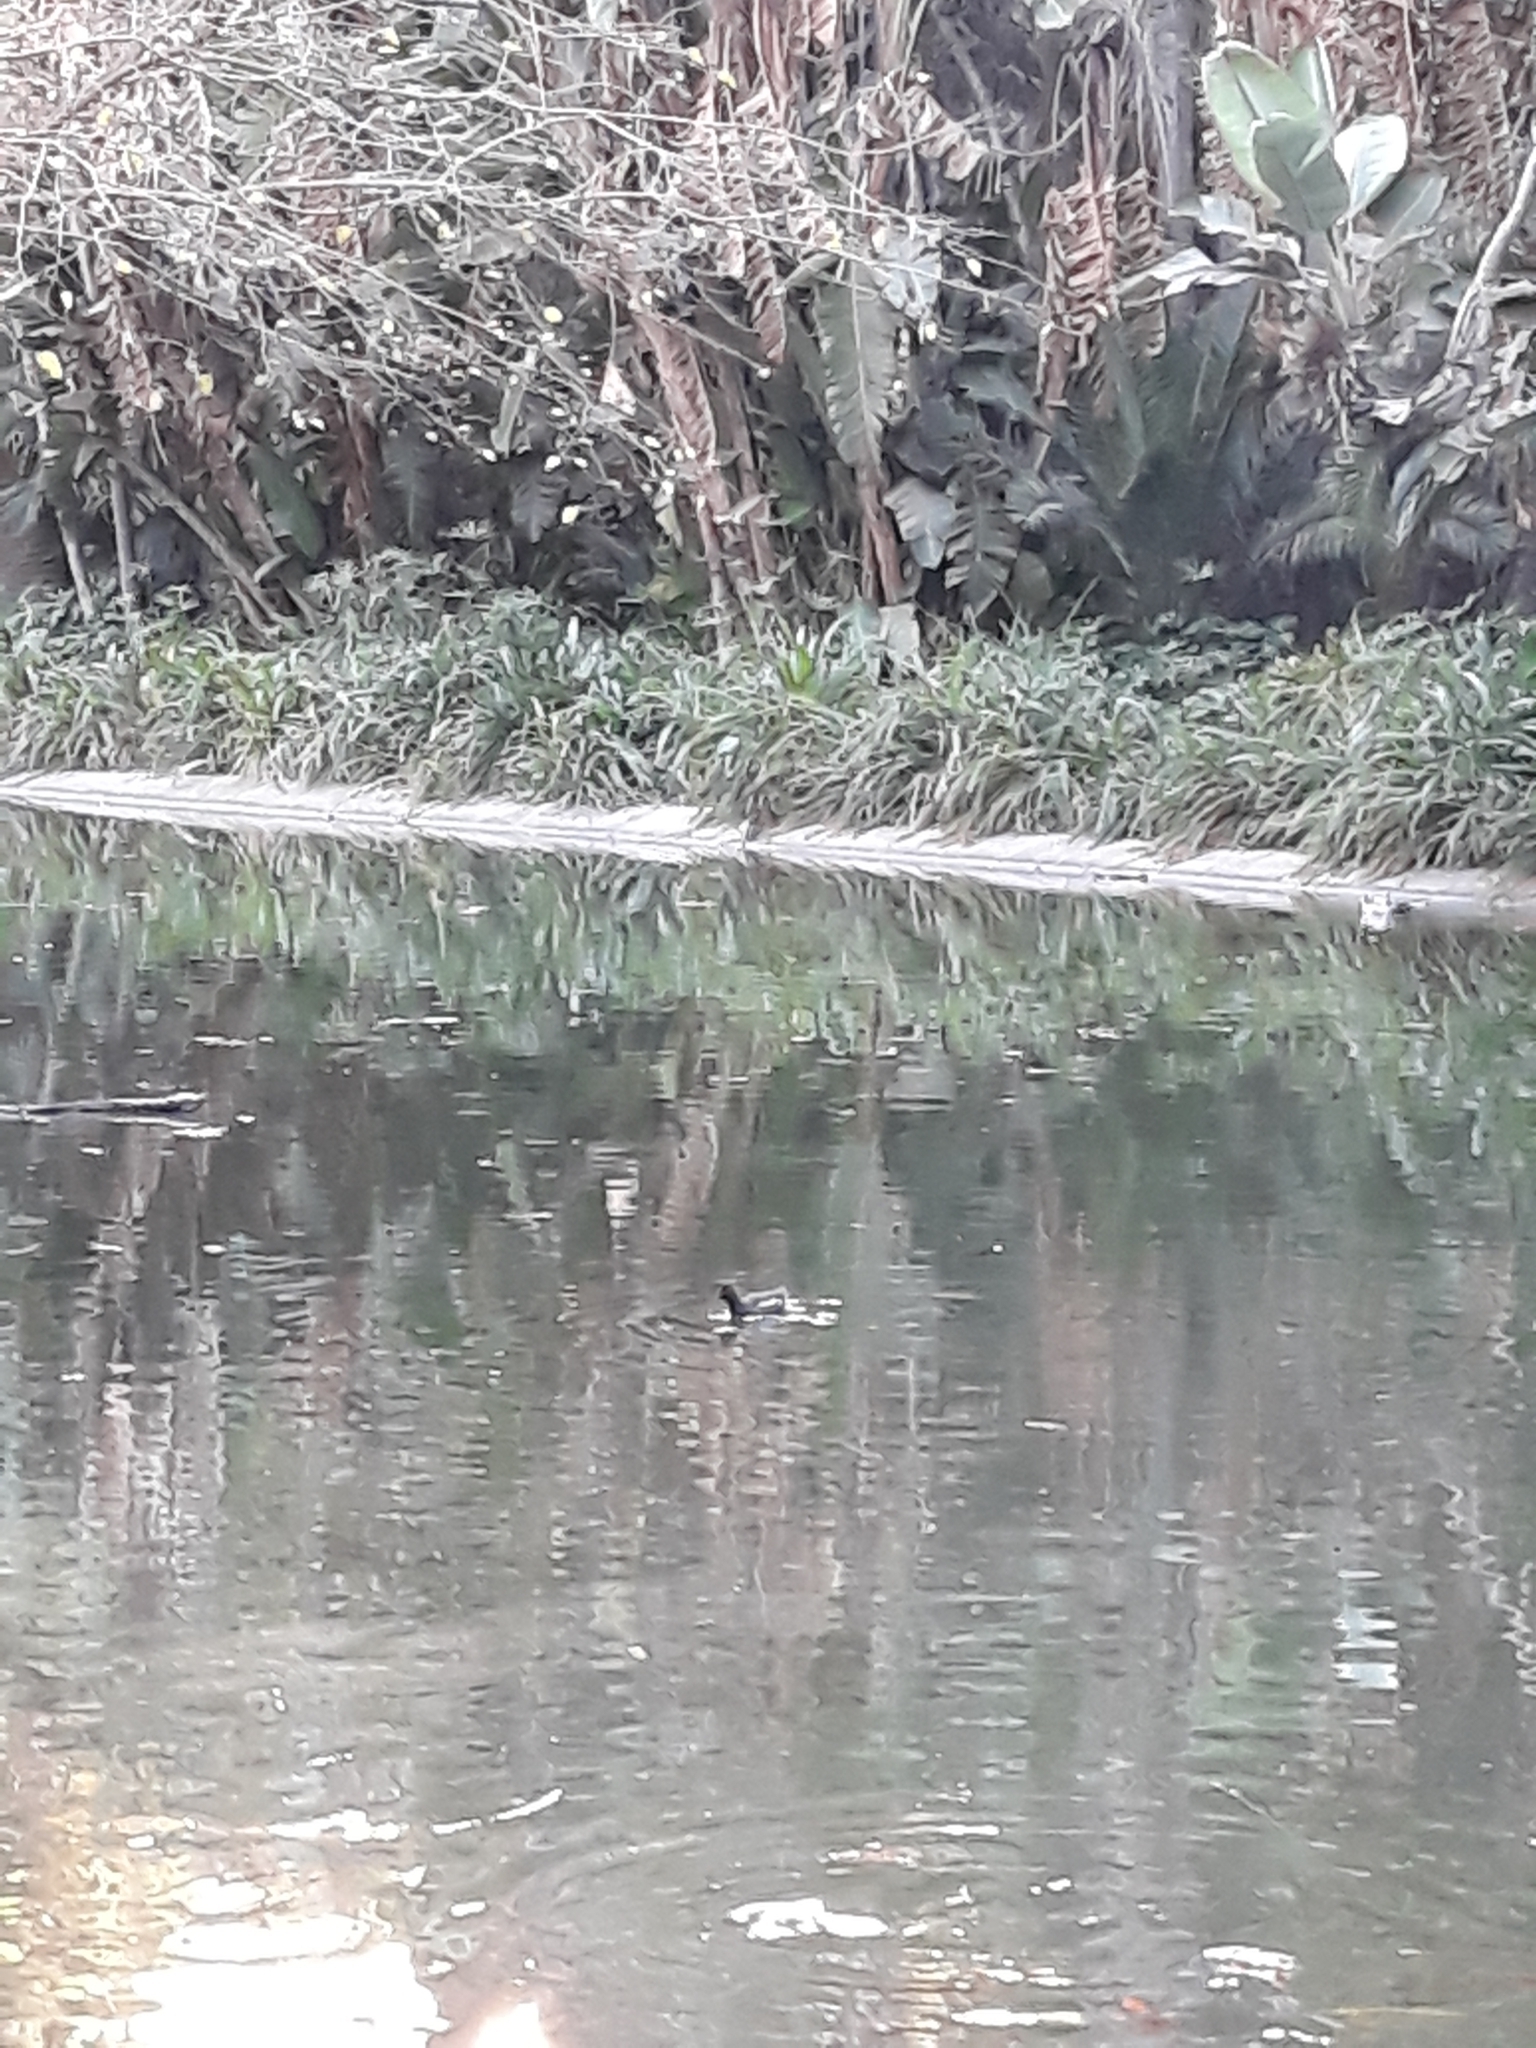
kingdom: Animalia
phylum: Chordata
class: Aves
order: Gruiformes
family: Rallidae
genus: Gallinula
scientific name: Gallinula chloropus
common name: Common moorhen
